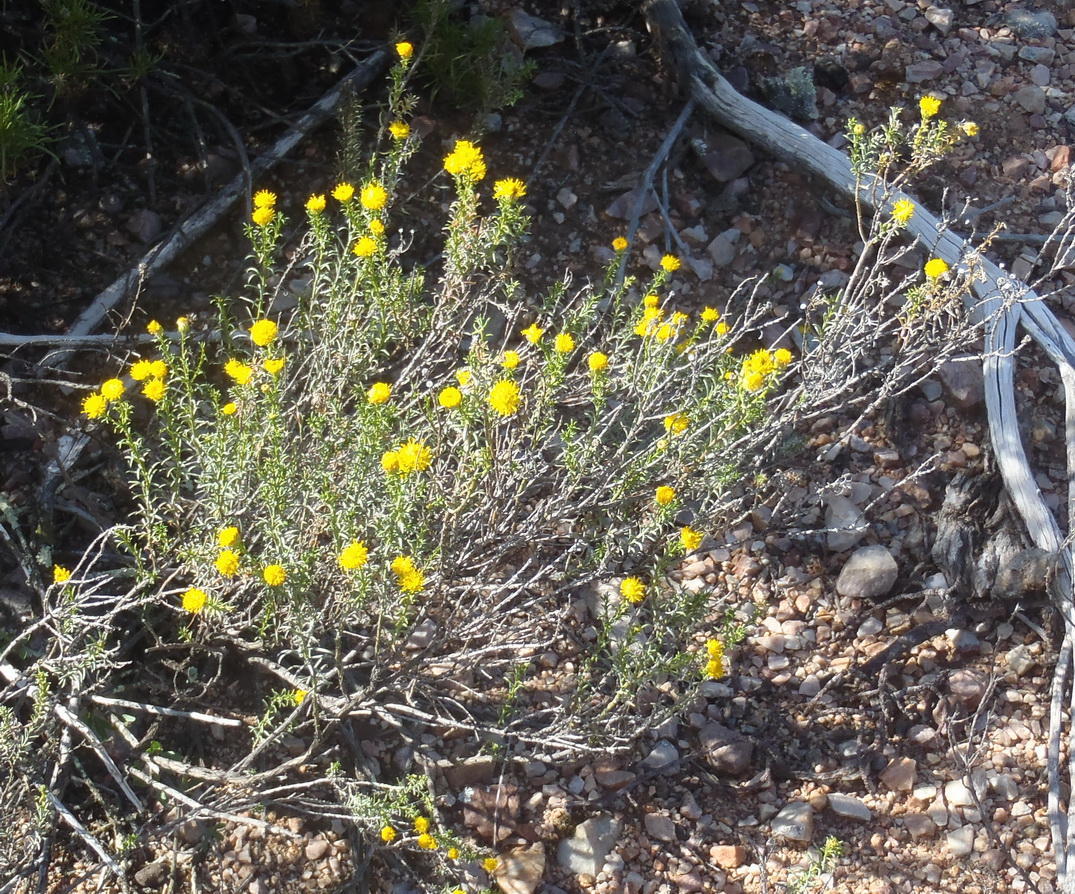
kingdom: Plantae
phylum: Tracheophyta
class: Magnoliopsida
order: Asterales
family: Asteraceae
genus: Chrysocoma
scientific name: Chrysocoma ciliata
